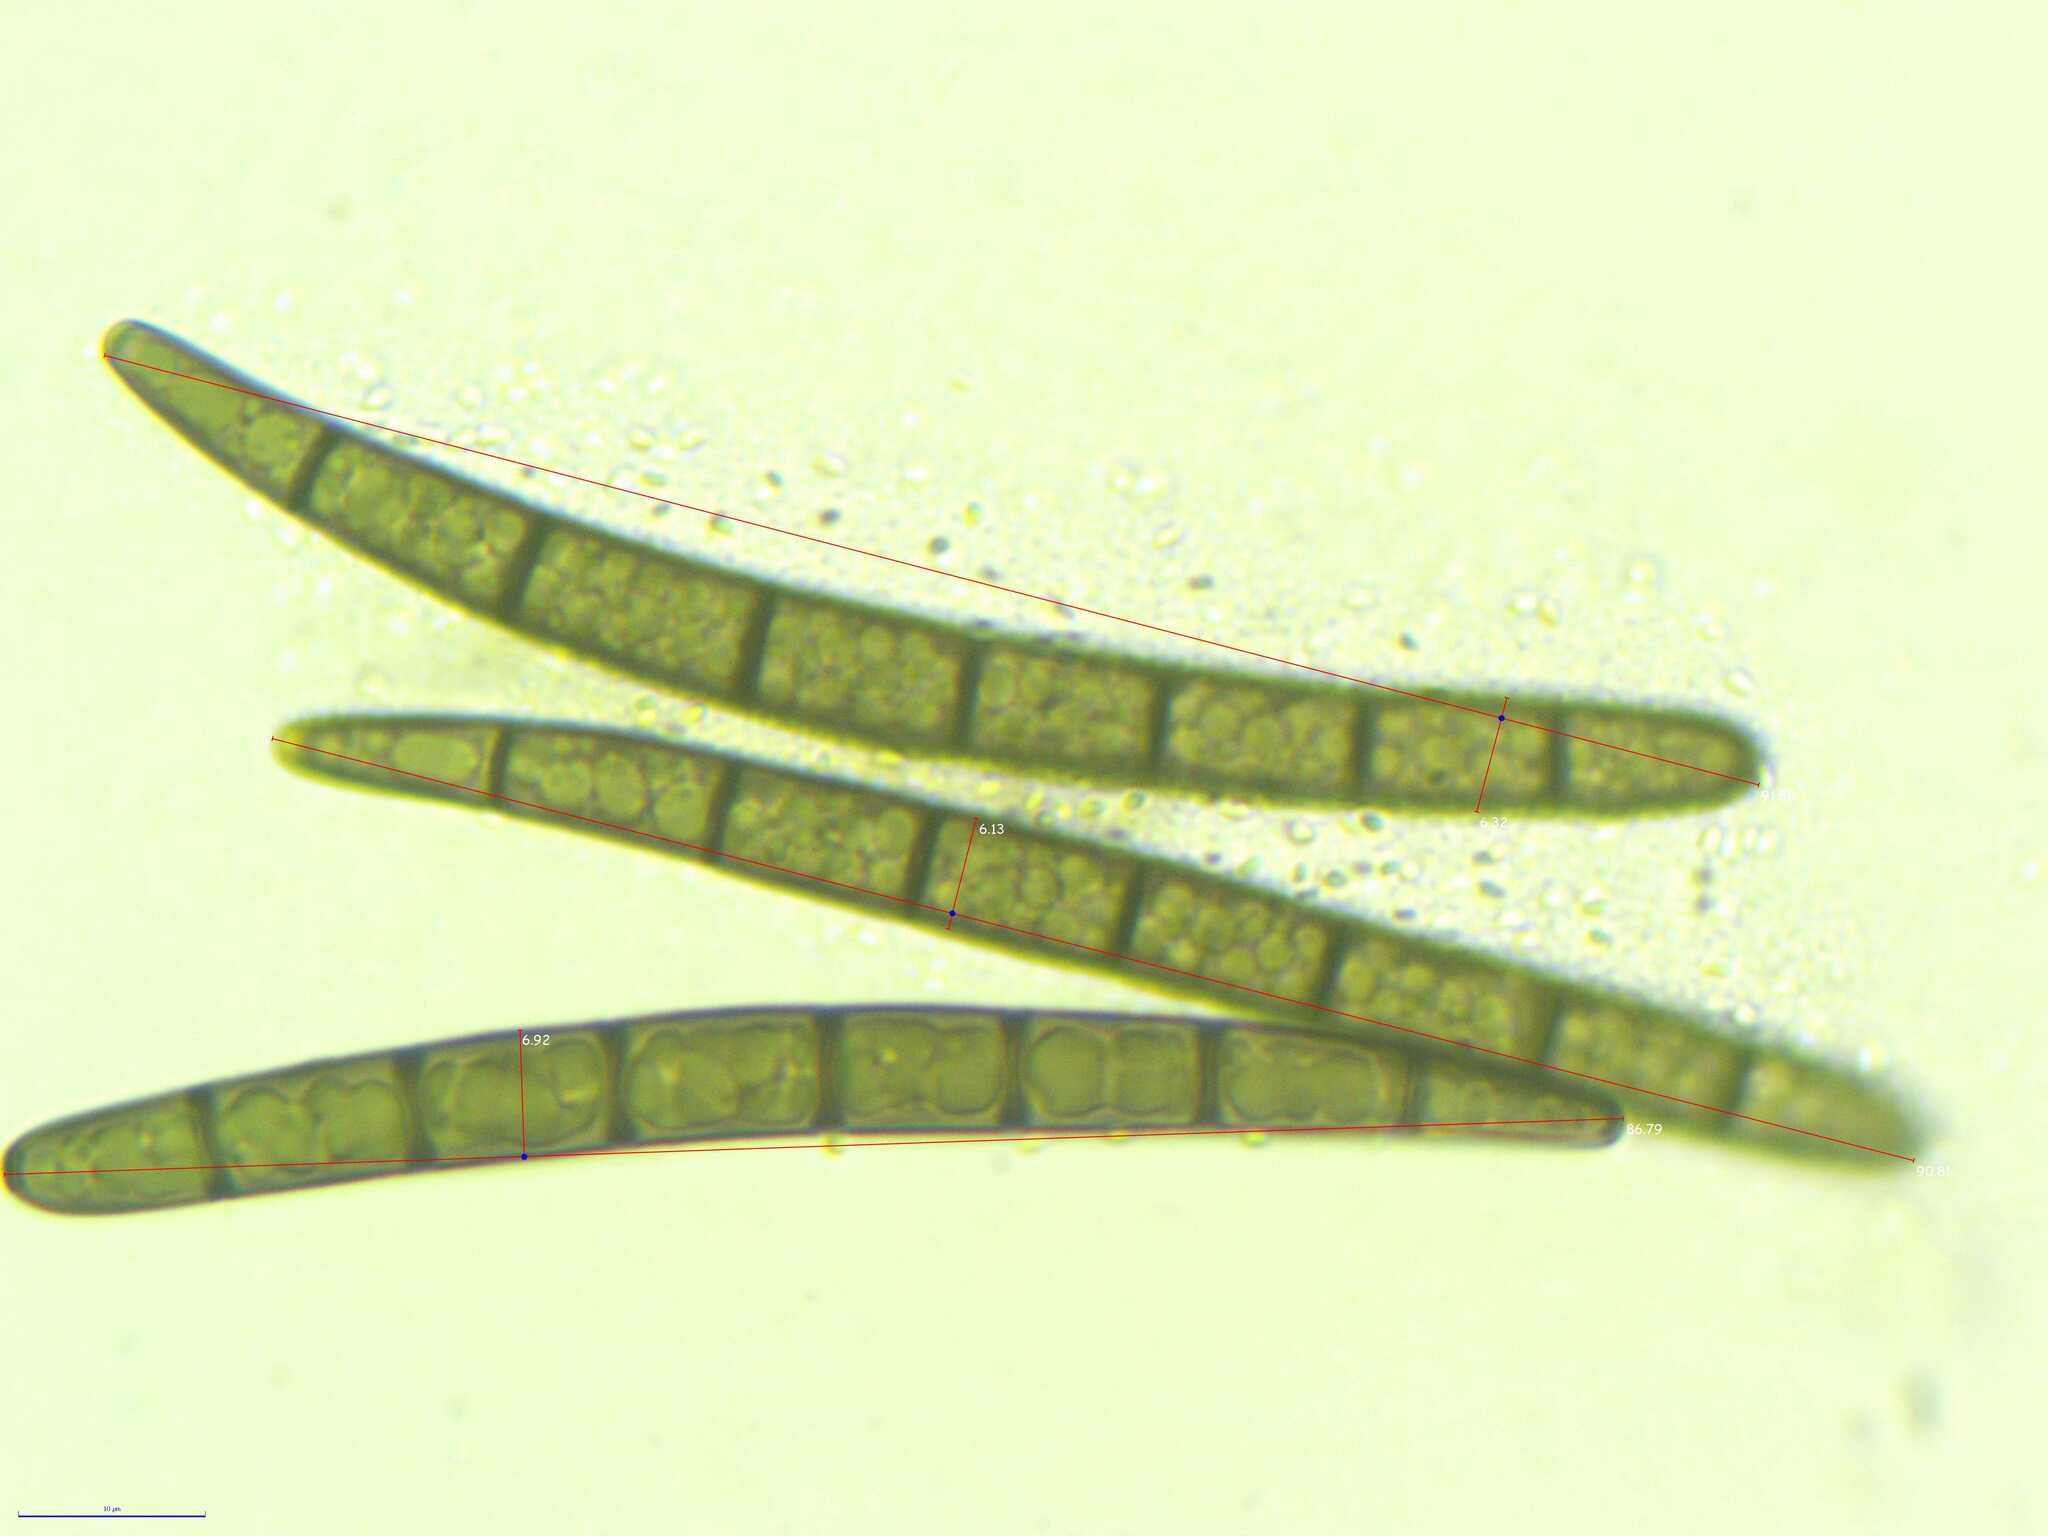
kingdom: Fungi
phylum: Ascomycota
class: Geoglossomycetes
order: Geoglossales
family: Geoglossaceae
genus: Geoglossum
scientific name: Geoglossum simile
